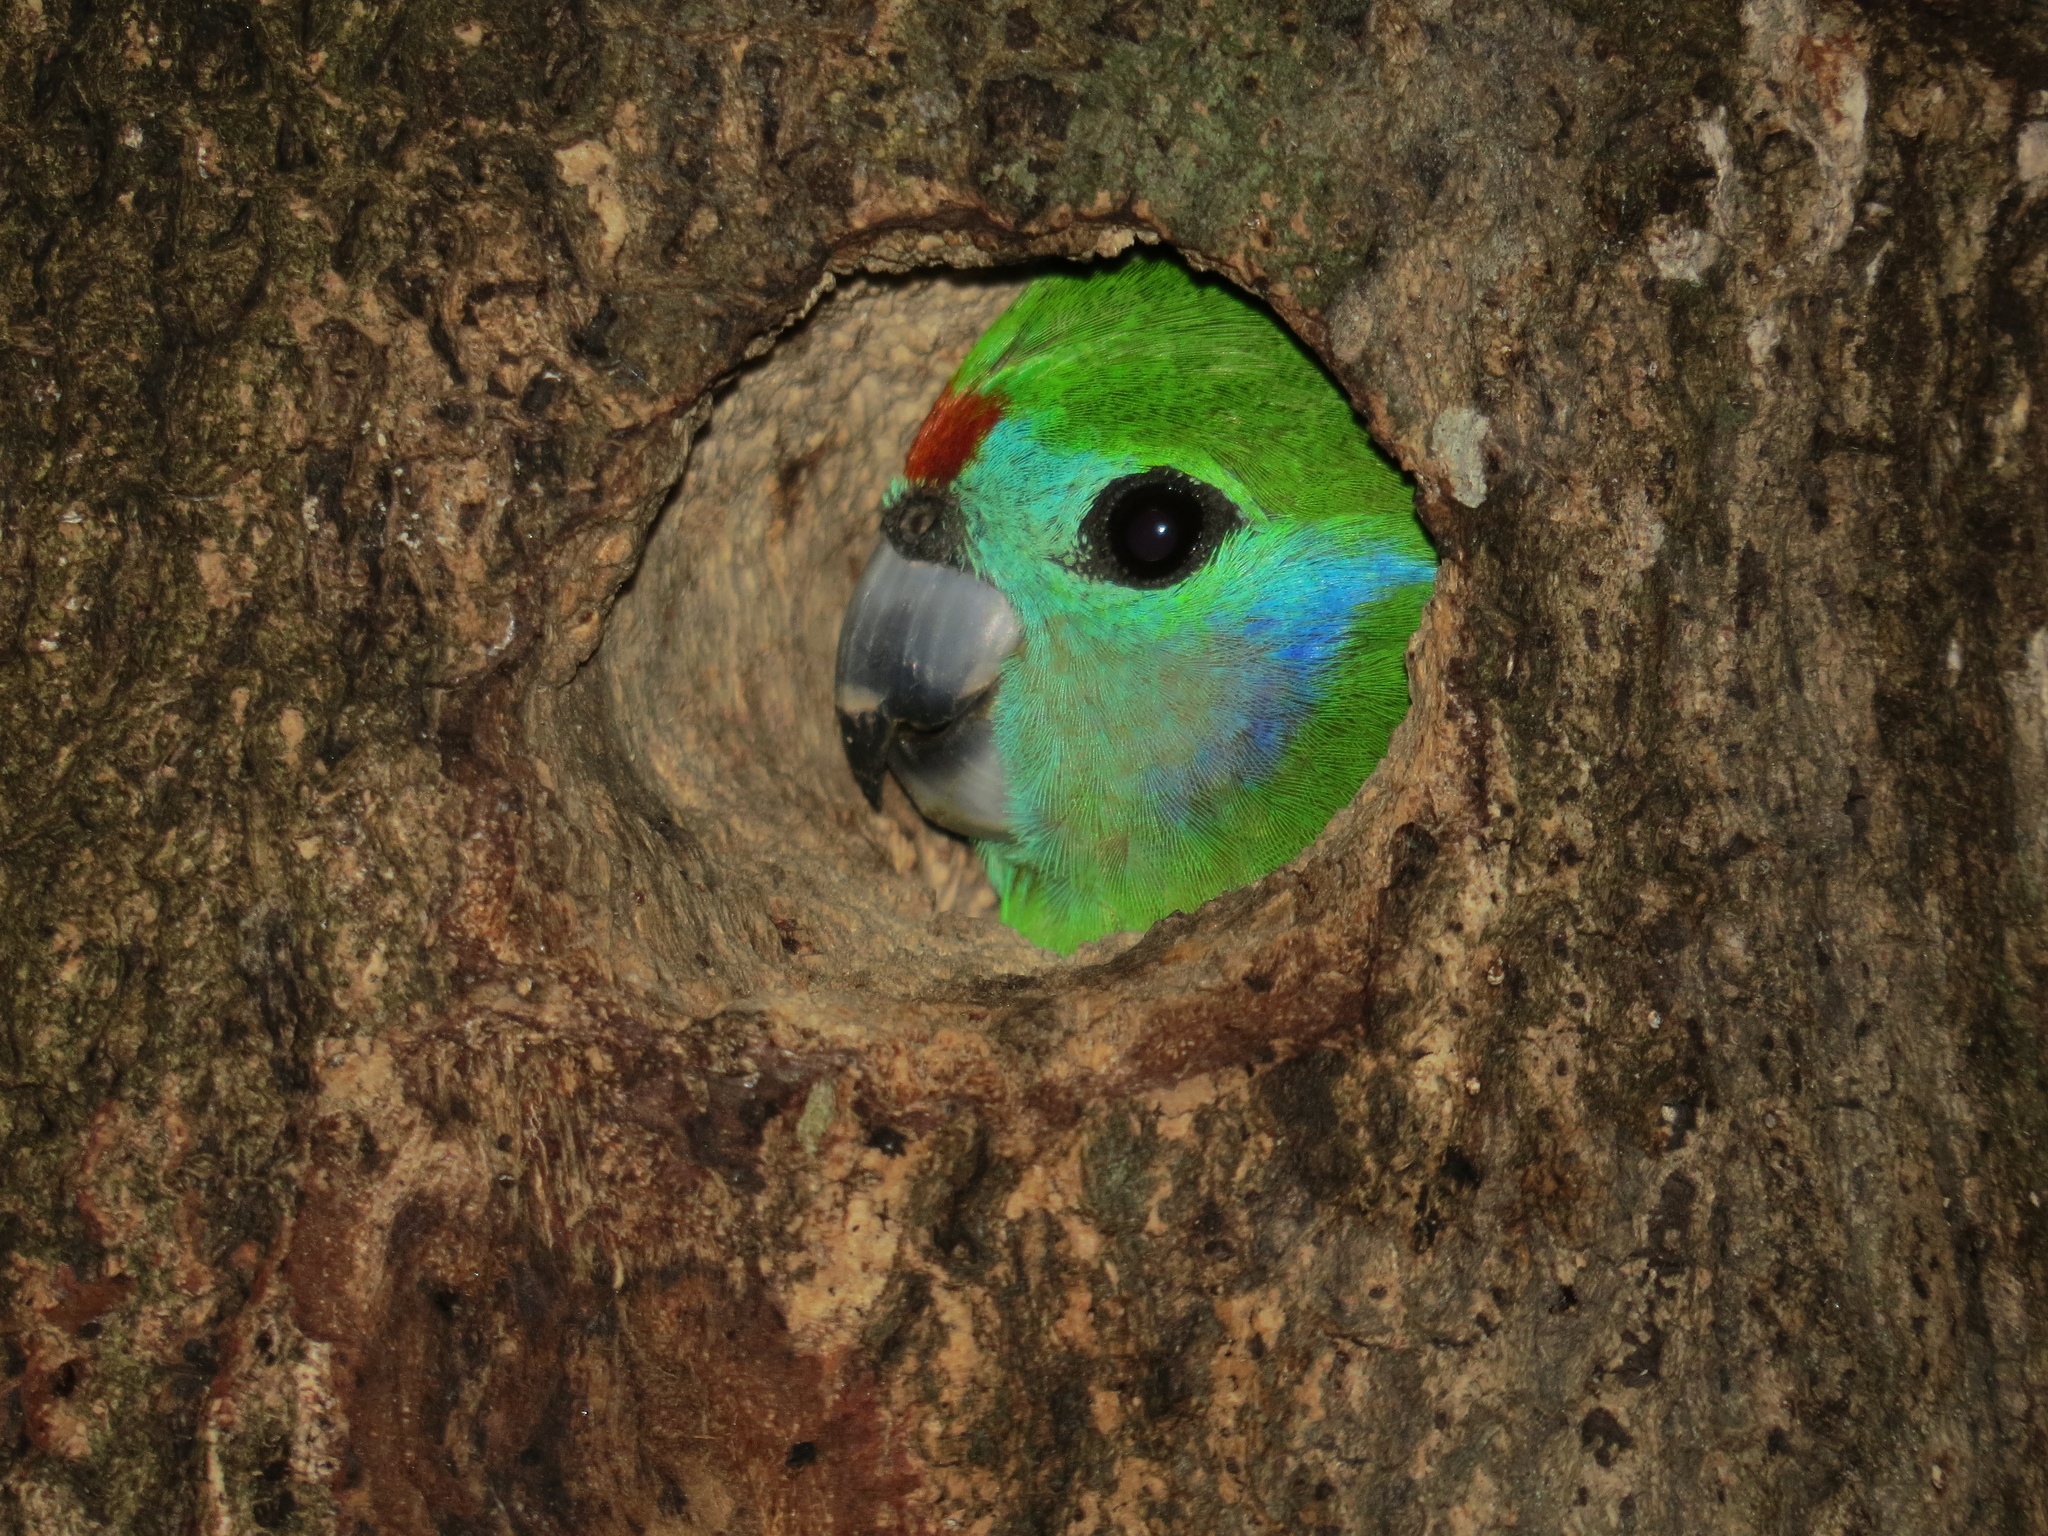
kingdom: Animalia
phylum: Chordata
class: Aves
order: Psittaciformes
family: Psittacidae
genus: Cyclopsitta
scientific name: Cyclopsitta diophthalma
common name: Double-eyed fig parrot
